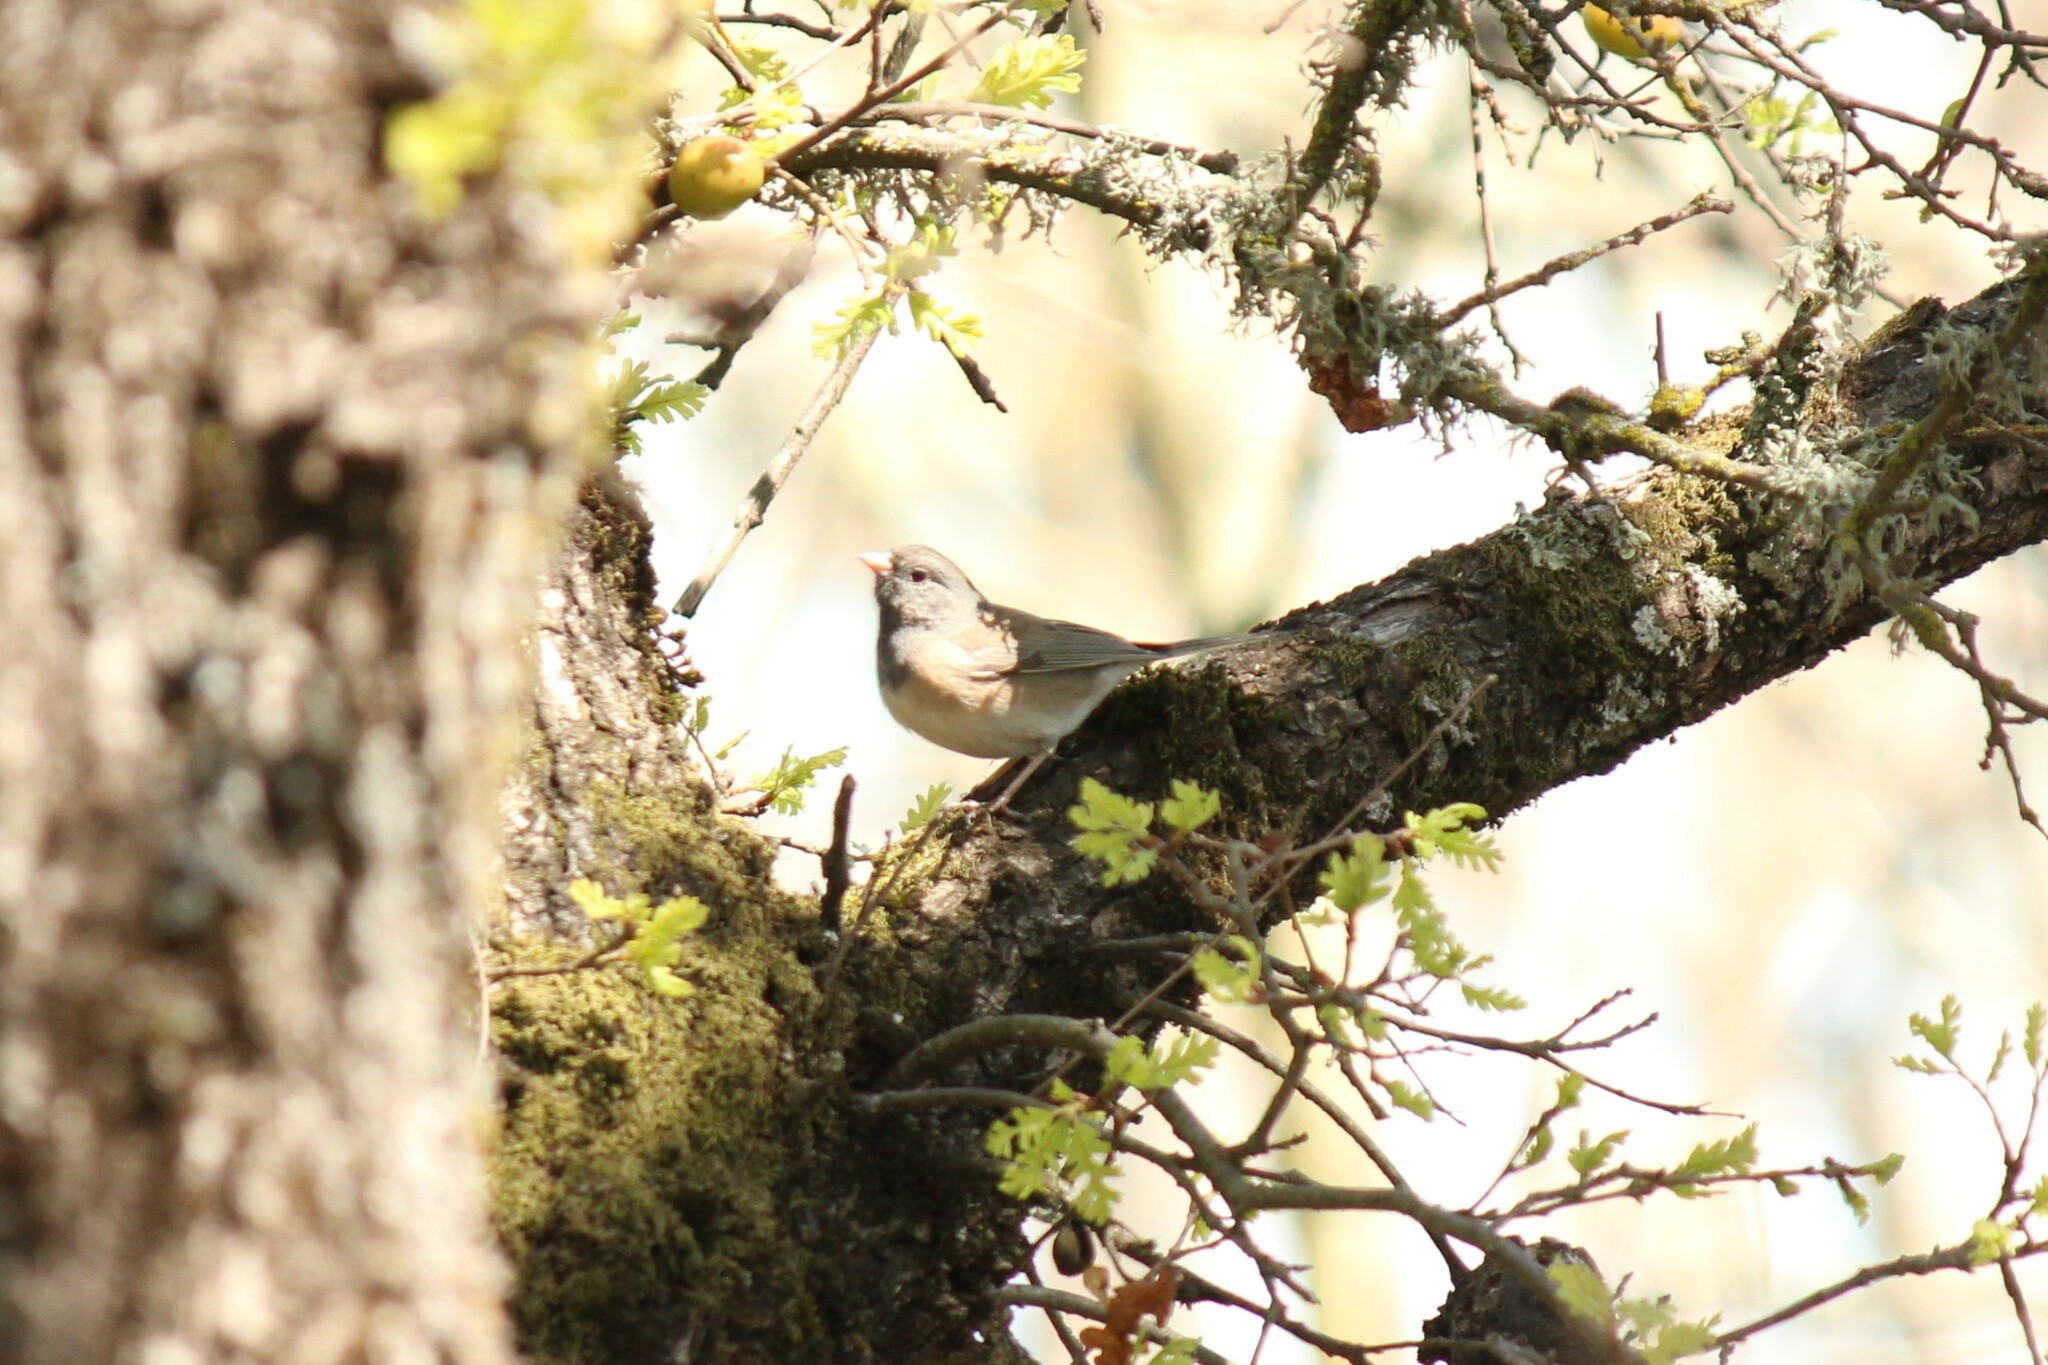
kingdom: Animalia
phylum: Chordata
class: Aves
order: Passeriformes
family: Passerellidae
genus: Junco
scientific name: Junco hyemalis
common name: Dark-eyed junco
